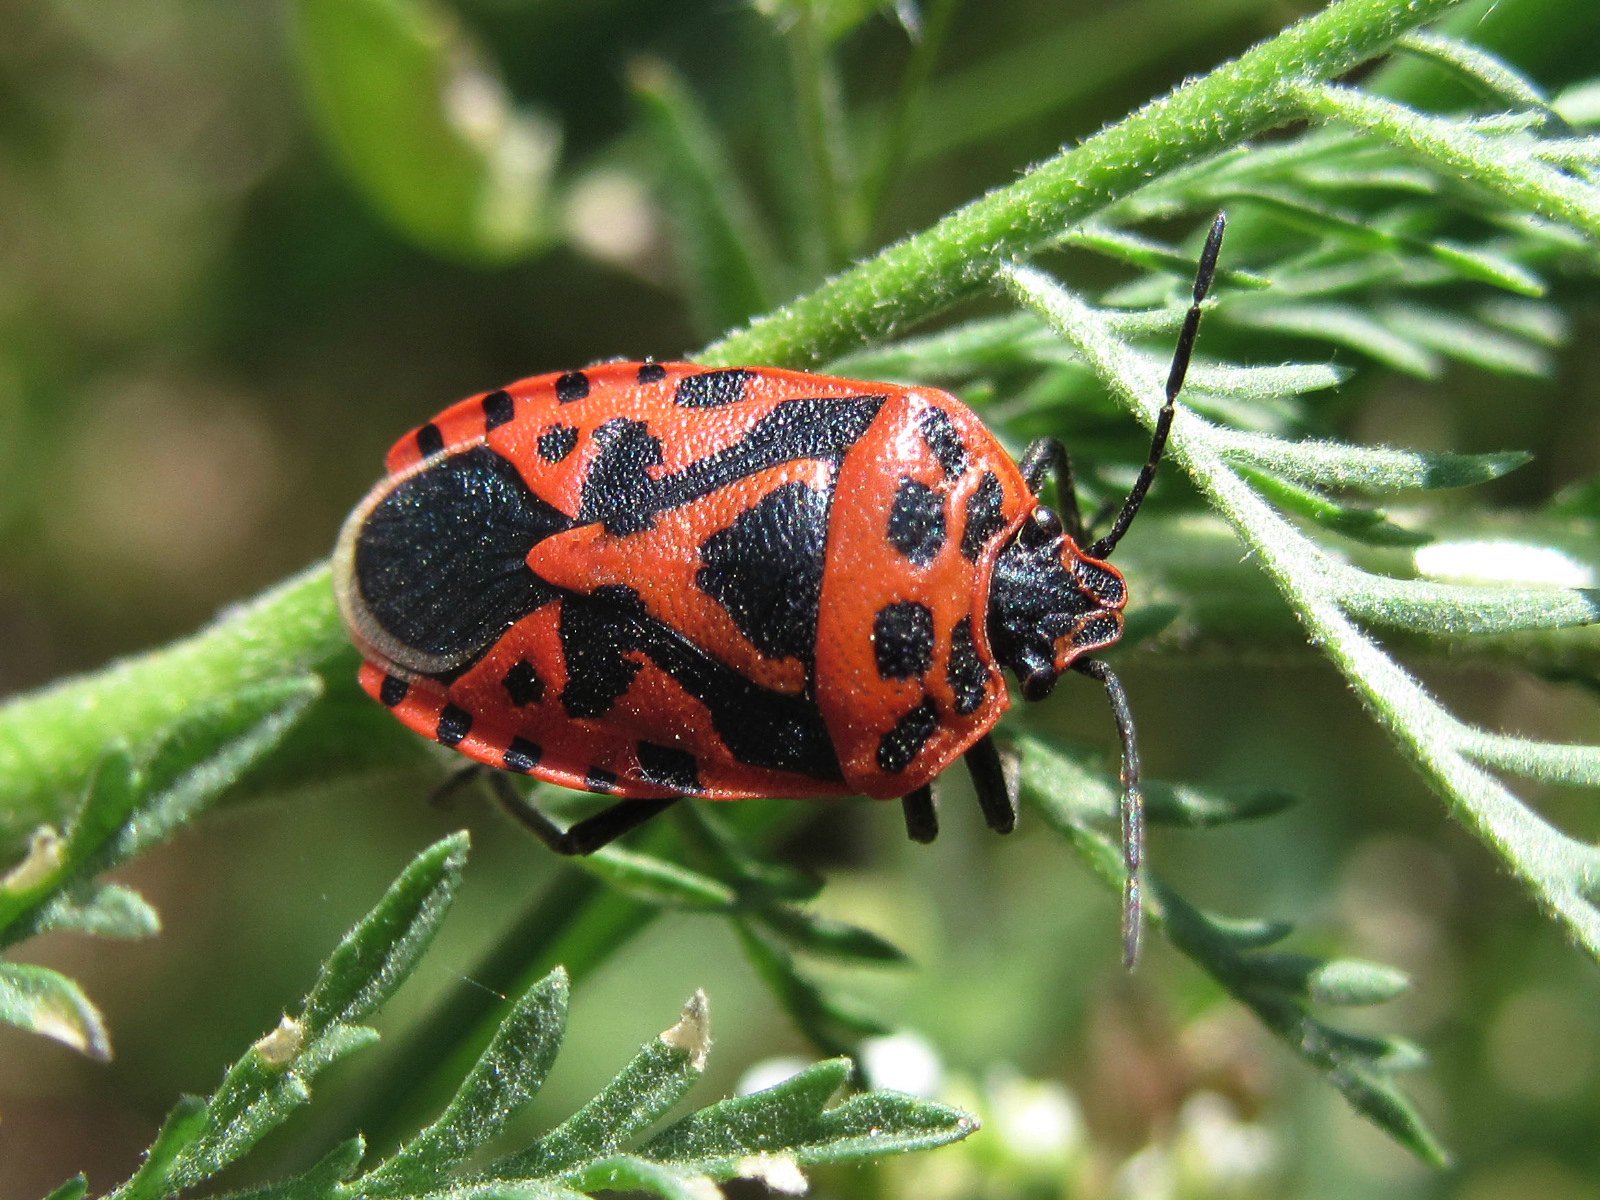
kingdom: Animalia
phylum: Arthropoda
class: Insecta
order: Hemiptera
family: Pentatomidae
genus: Eurydema
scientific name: Eurydema ventralis
